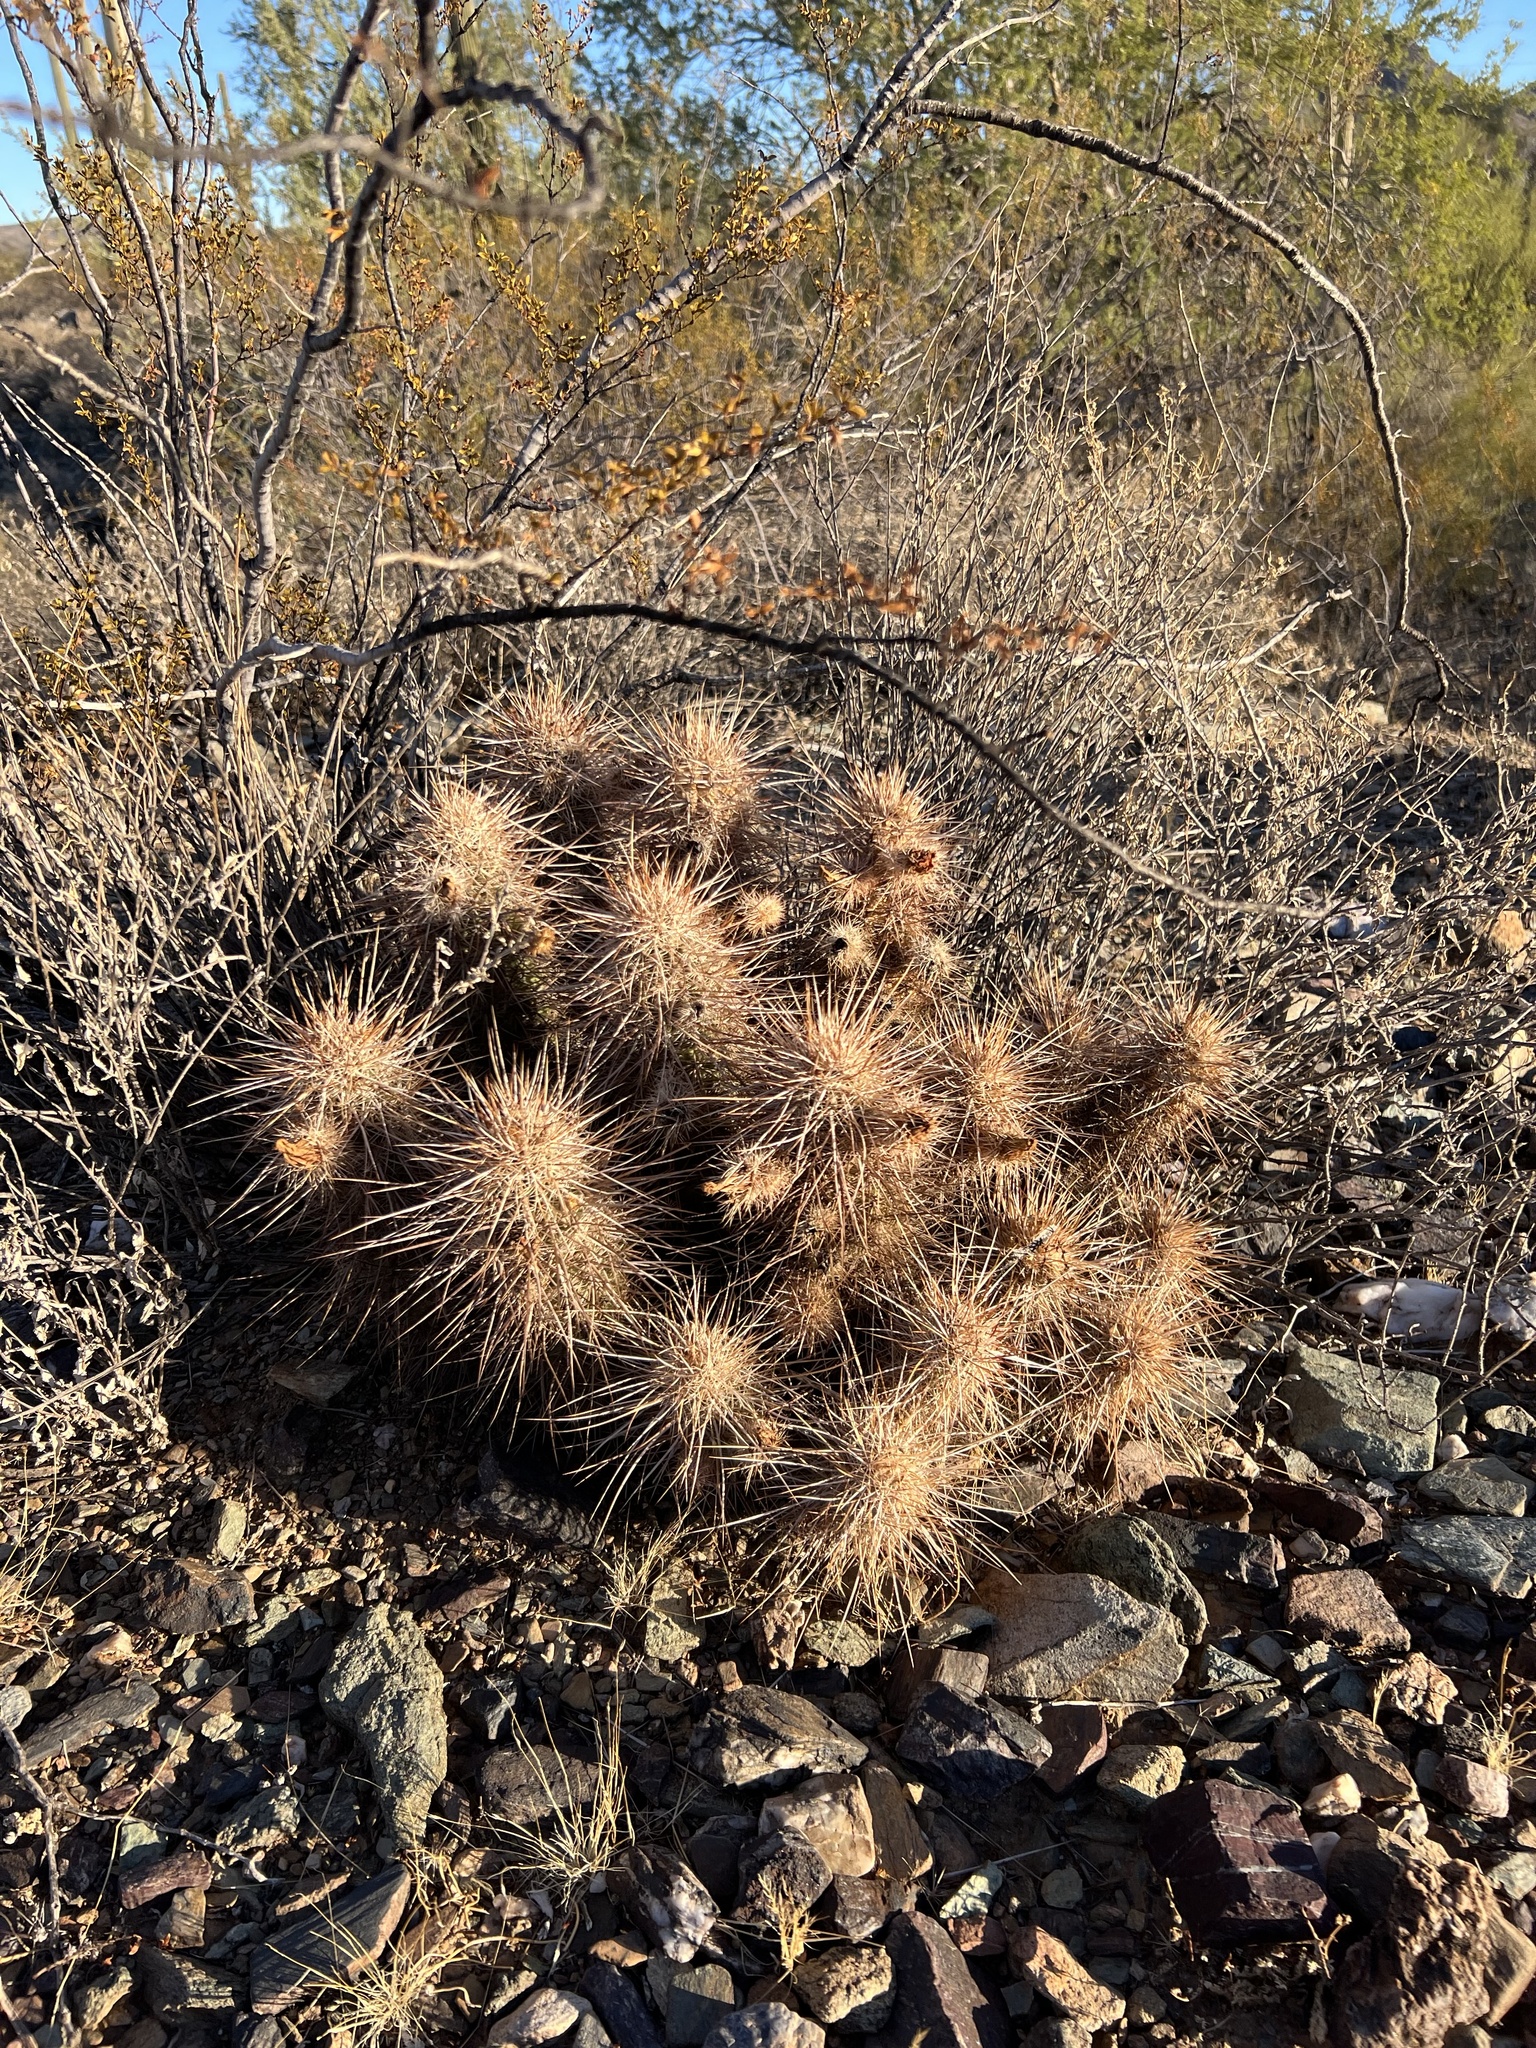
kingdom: Plantae
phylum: Tracheophyta
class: Magnoliopsida
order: Caryophyllales
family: Cactaceae
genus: Echinocereus
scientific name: Echinocereus engelmannii
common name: Engelmann's hedgehog cactus
